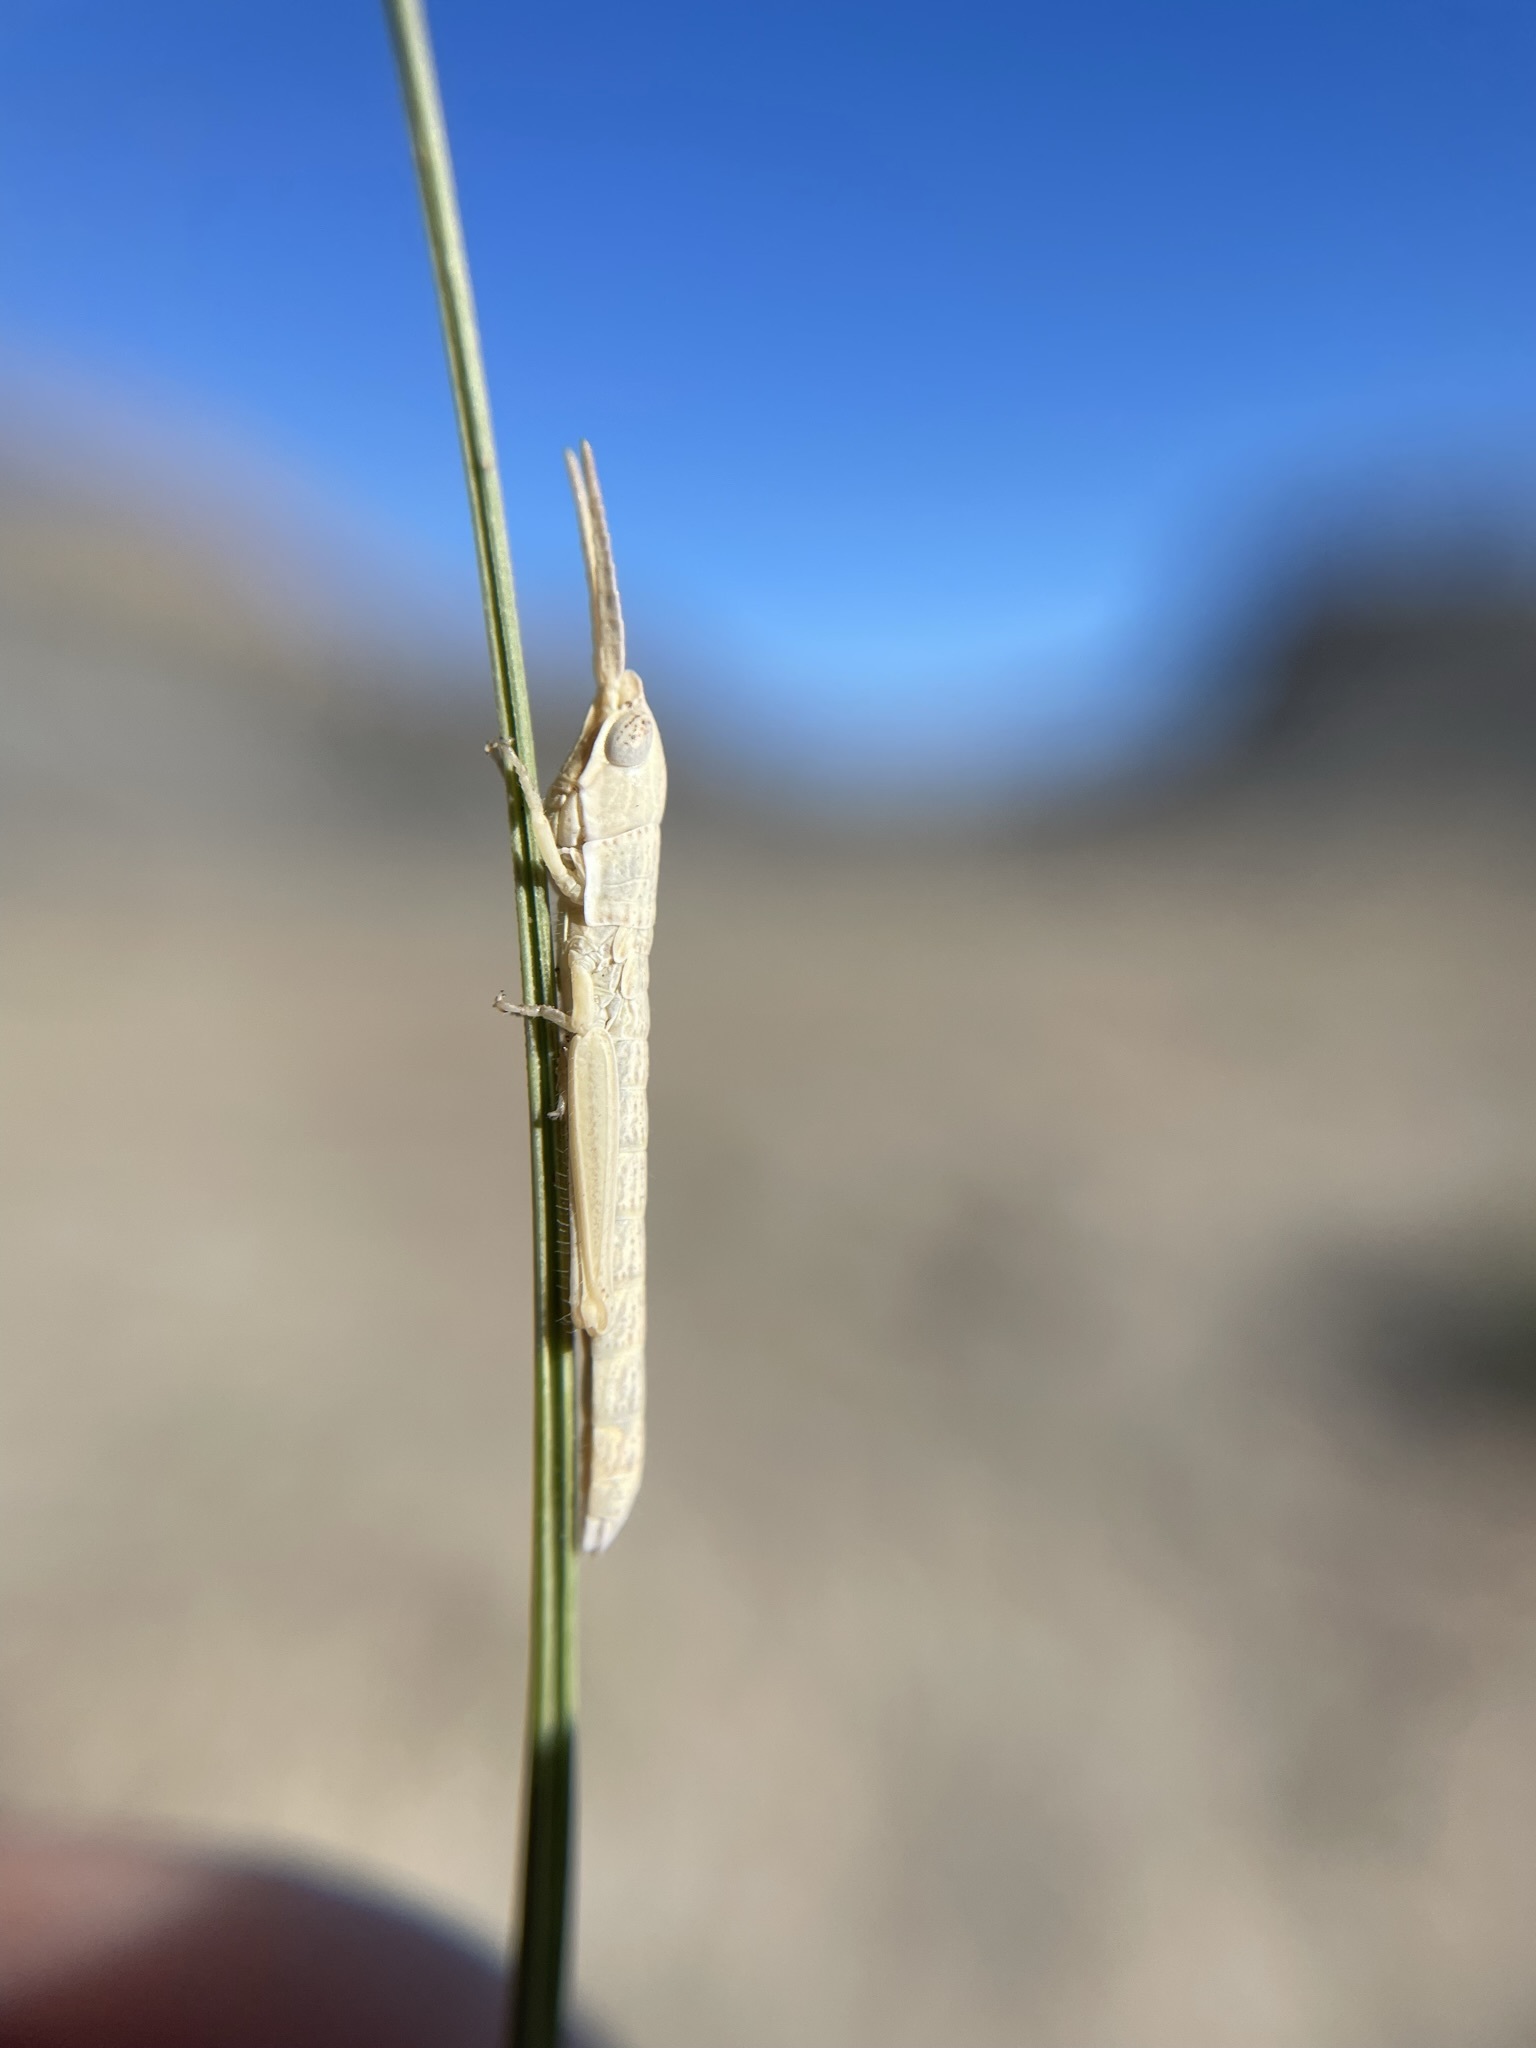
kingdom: Animalia
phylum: Arthropoda
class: Insecta
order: Orthoptera
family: Acrididae
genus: Paropomala
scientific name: Paropomala wyomingensis
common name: Wyoming toothpick grasshopper
